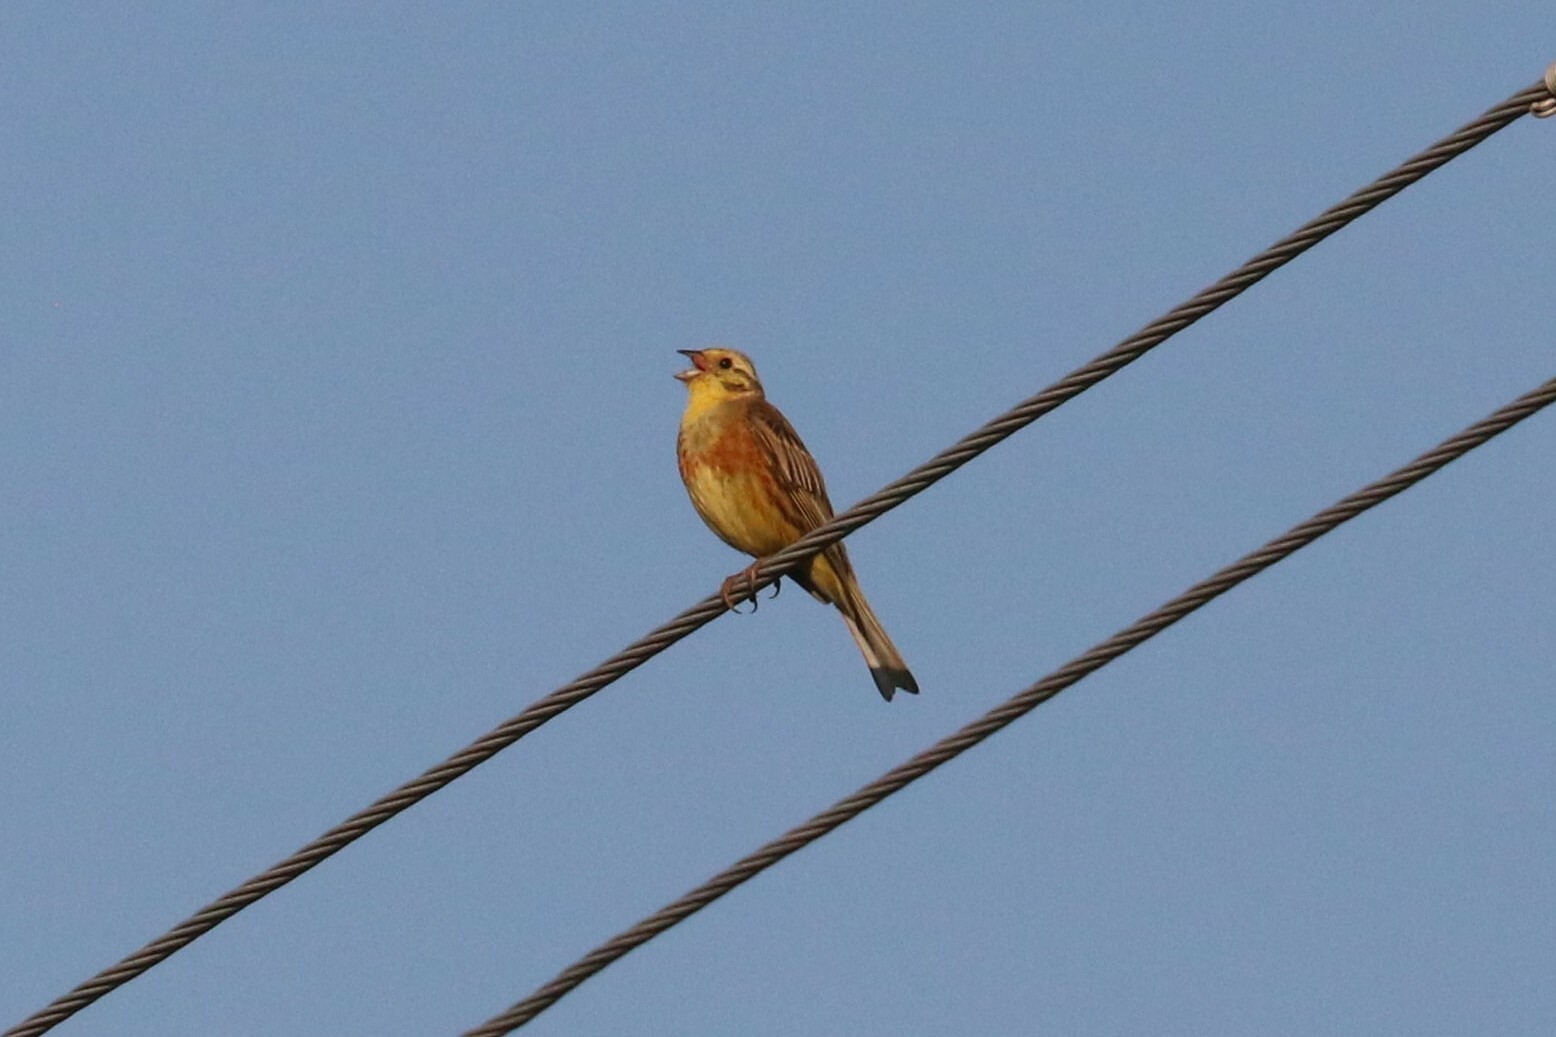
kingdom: Animalia
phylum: Chordata
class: Aves
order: Passeriformes
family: Emberizidae
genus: Emberiza
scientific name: Emberiza citrinella
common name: Yellowhammer
